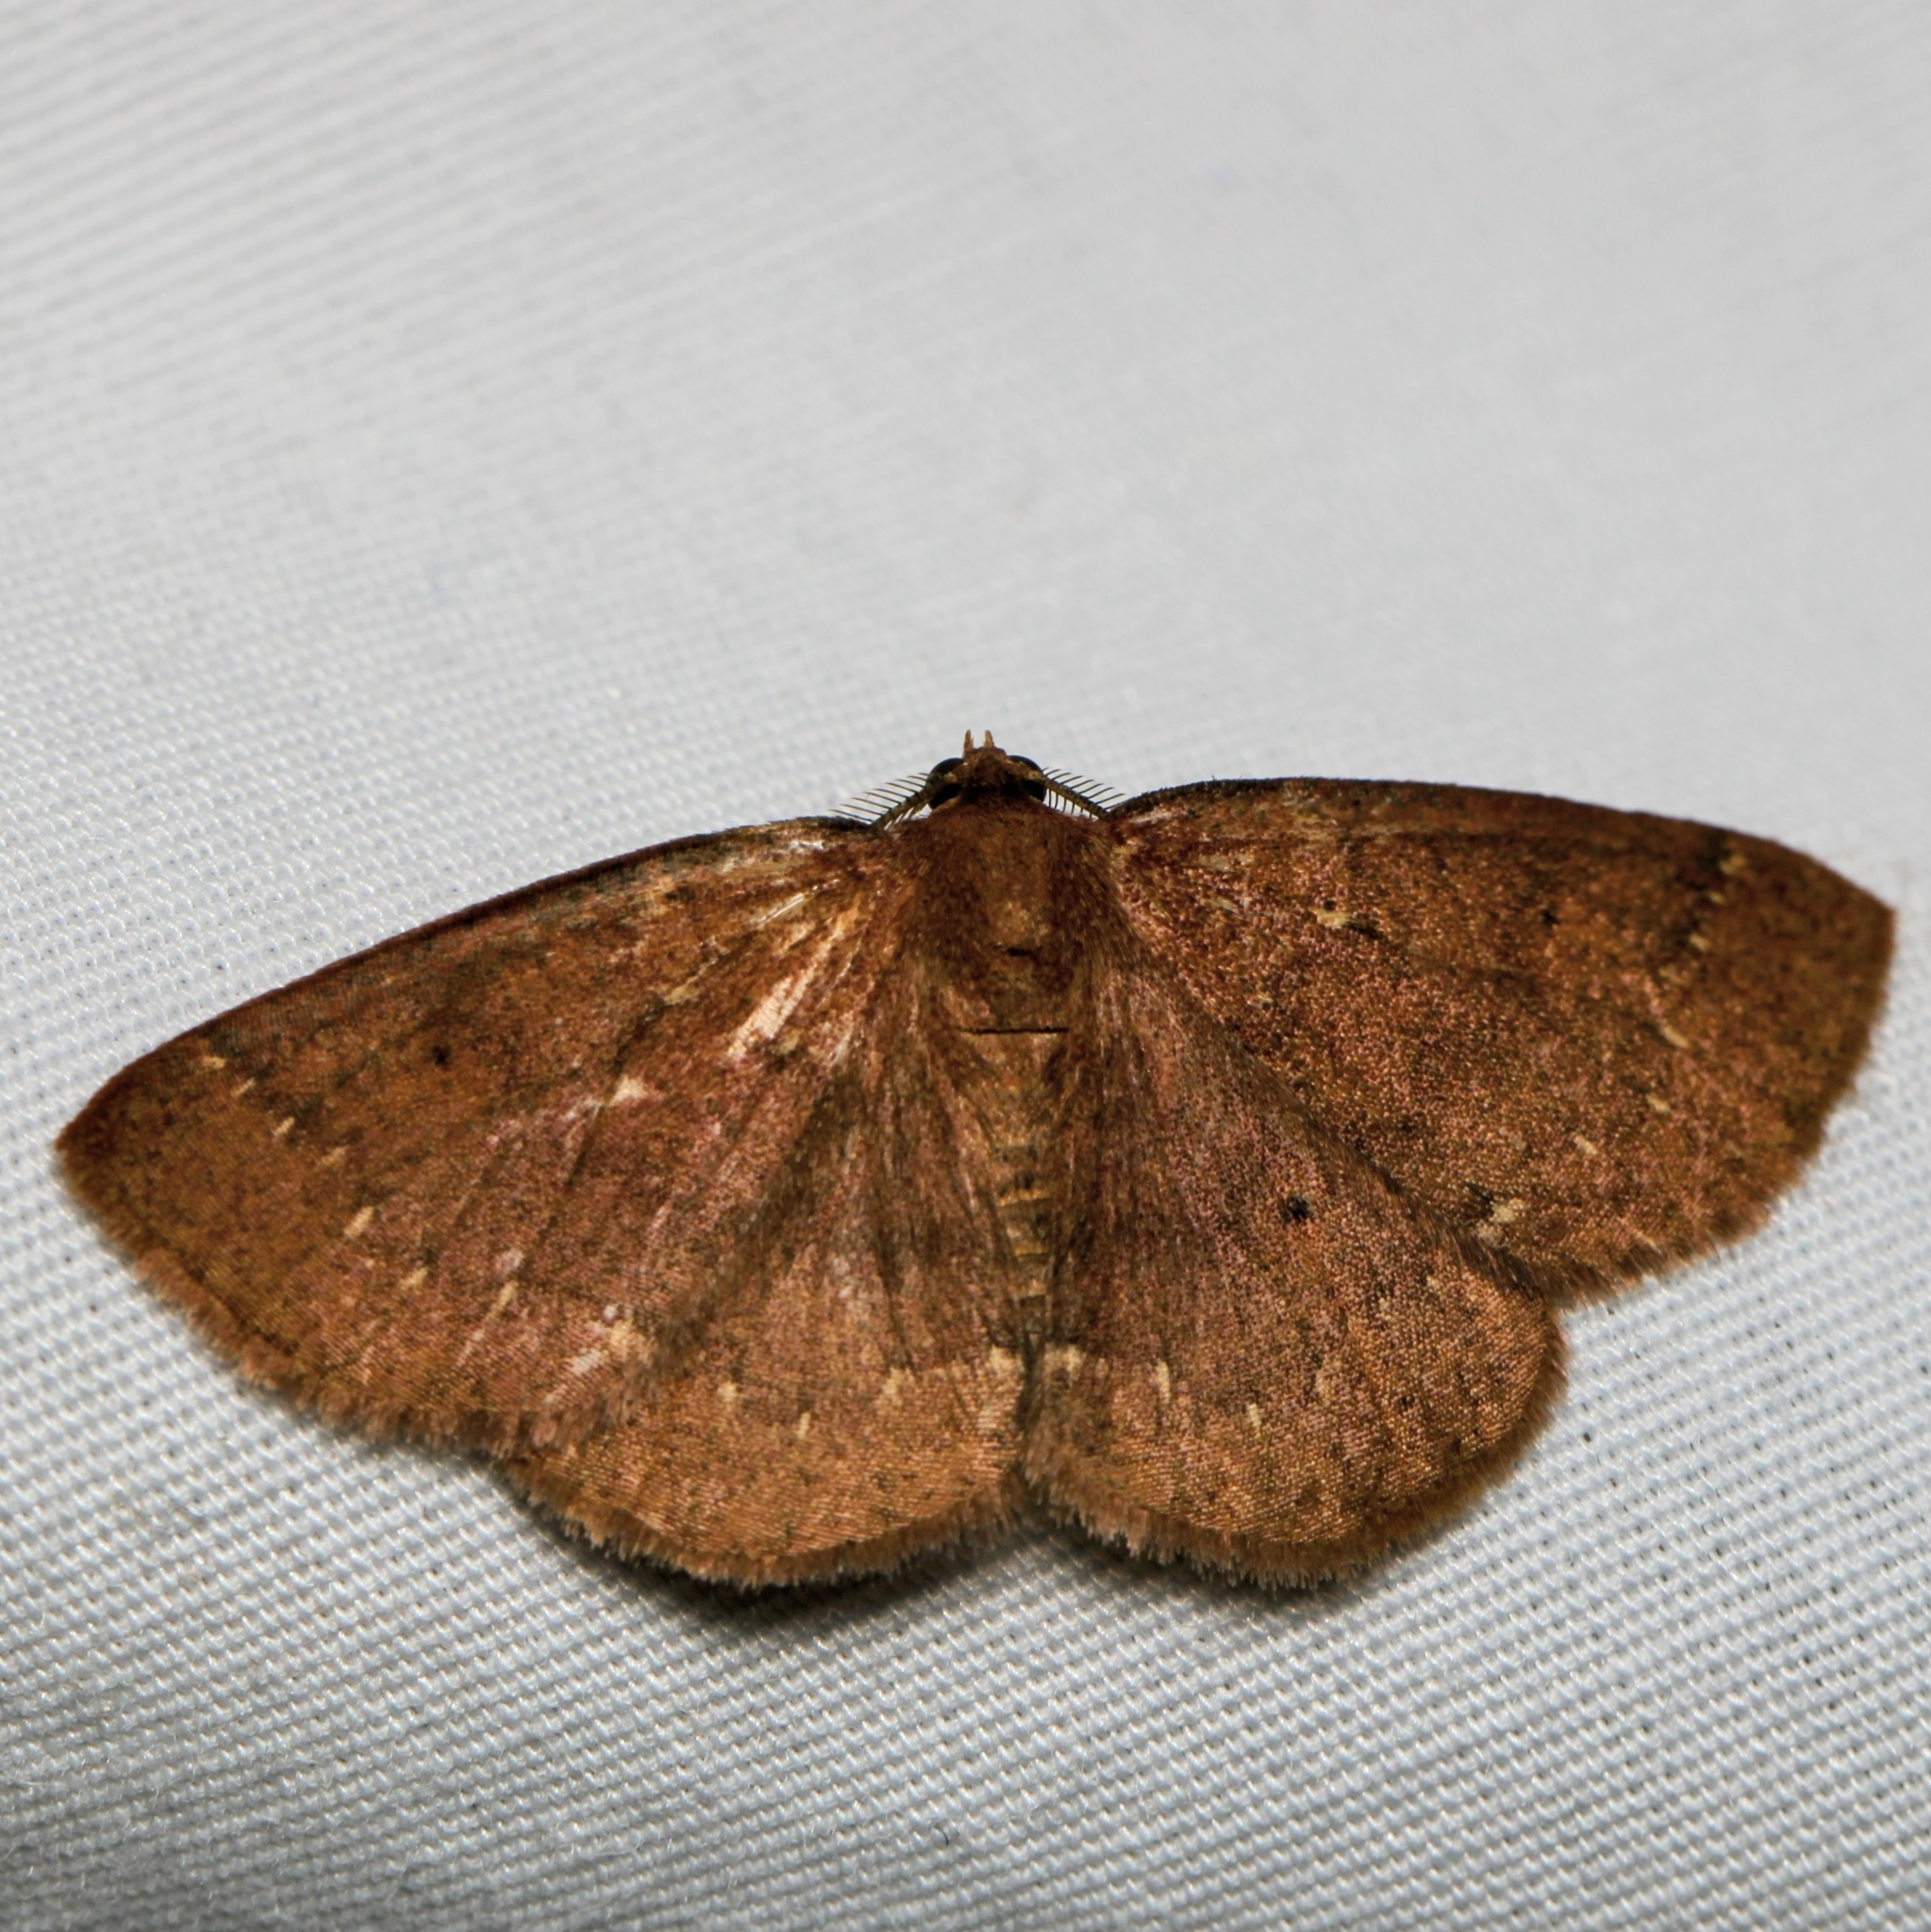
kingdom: Animalia
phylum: Arthropoda
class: Insecta
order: Lepidoptera
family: Geometridae
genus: Ilexia
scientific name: Ilexia intractata
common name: Black-dotted ruddy moth
